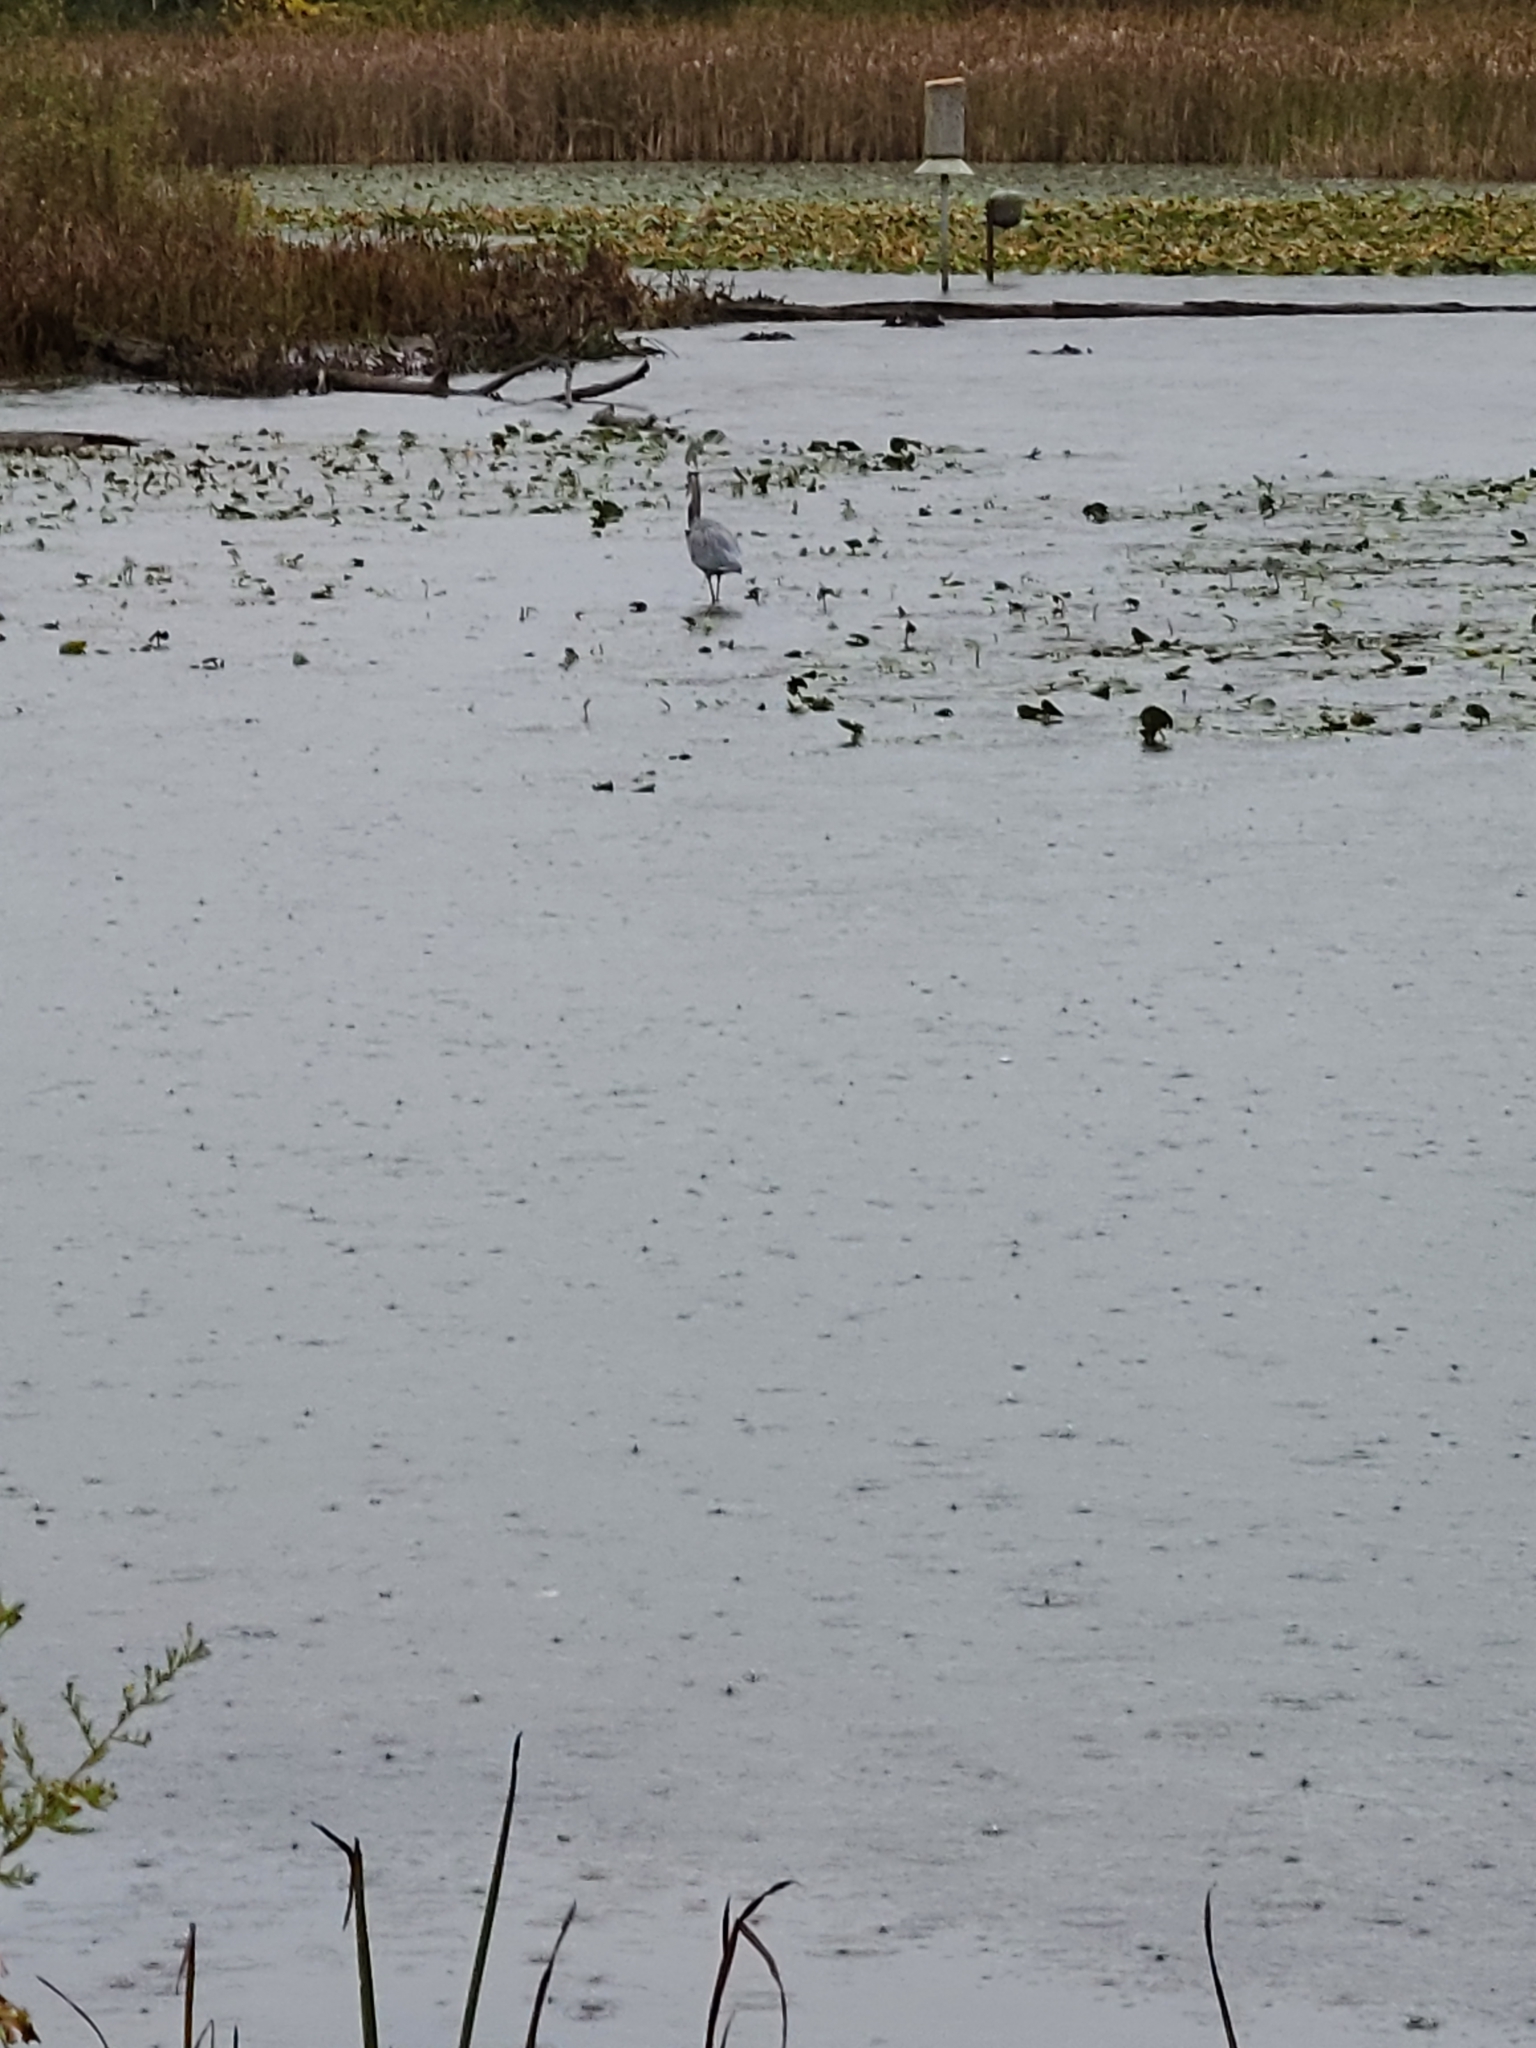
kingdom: Animalia
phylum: Chordata
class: Aves
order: Pelecaniformes
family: Ardeidae
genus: Ardea
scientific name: Ardea herodias
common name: Great blue heron
